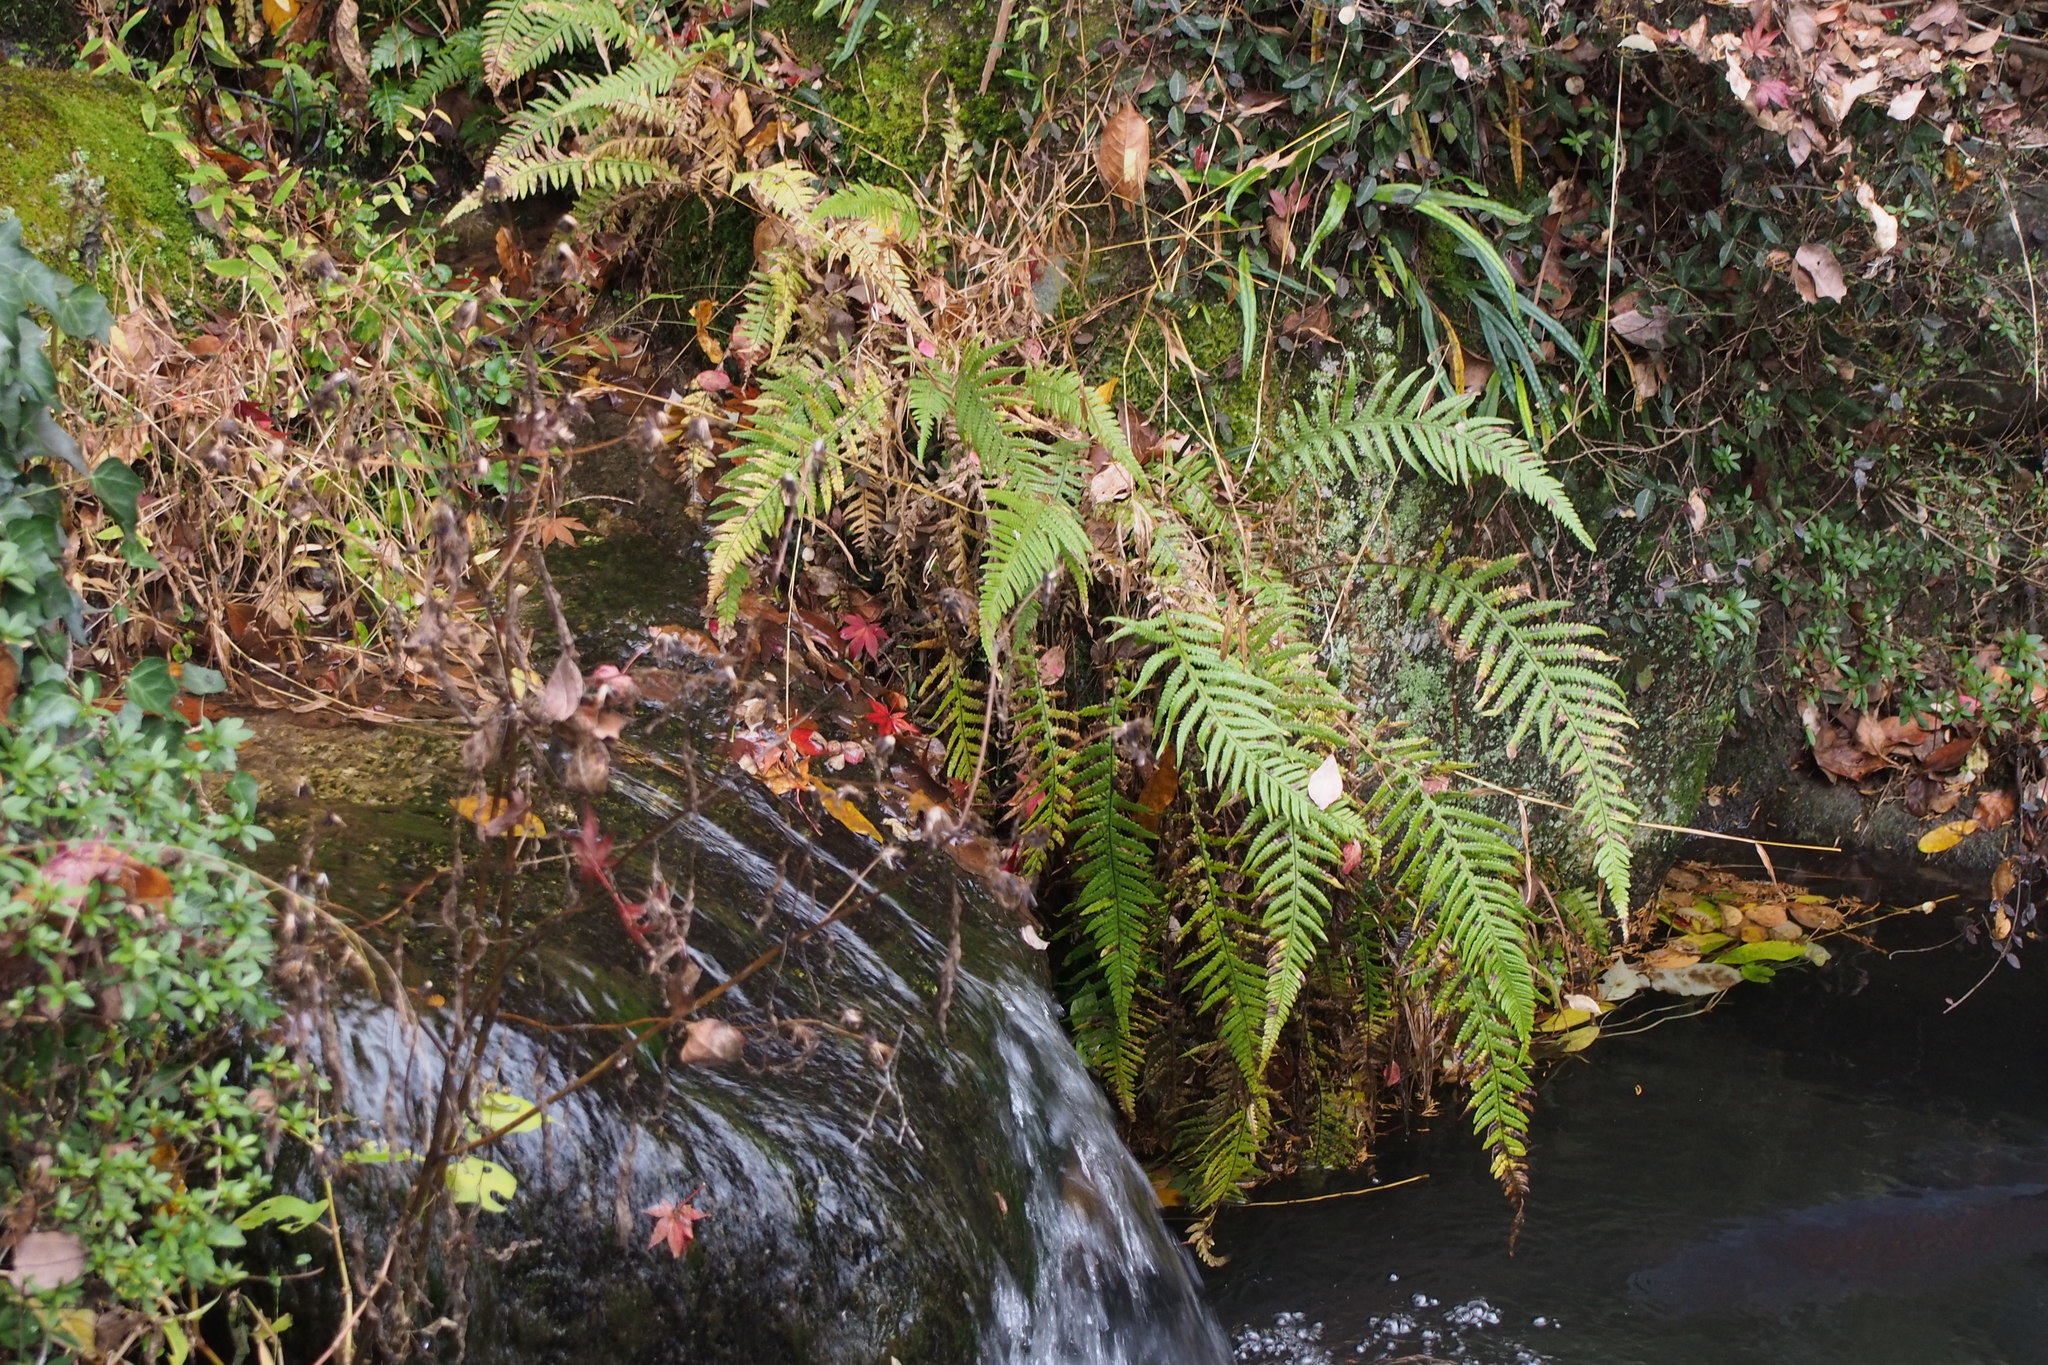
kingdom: Plantae
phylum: Tracheophyta
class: Polypodiopsida
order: Polypodiales
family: Thelypteridaceae
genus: Phegopteris
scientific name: Phegopteris decursive-pinnata
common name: Japanese beech fern
